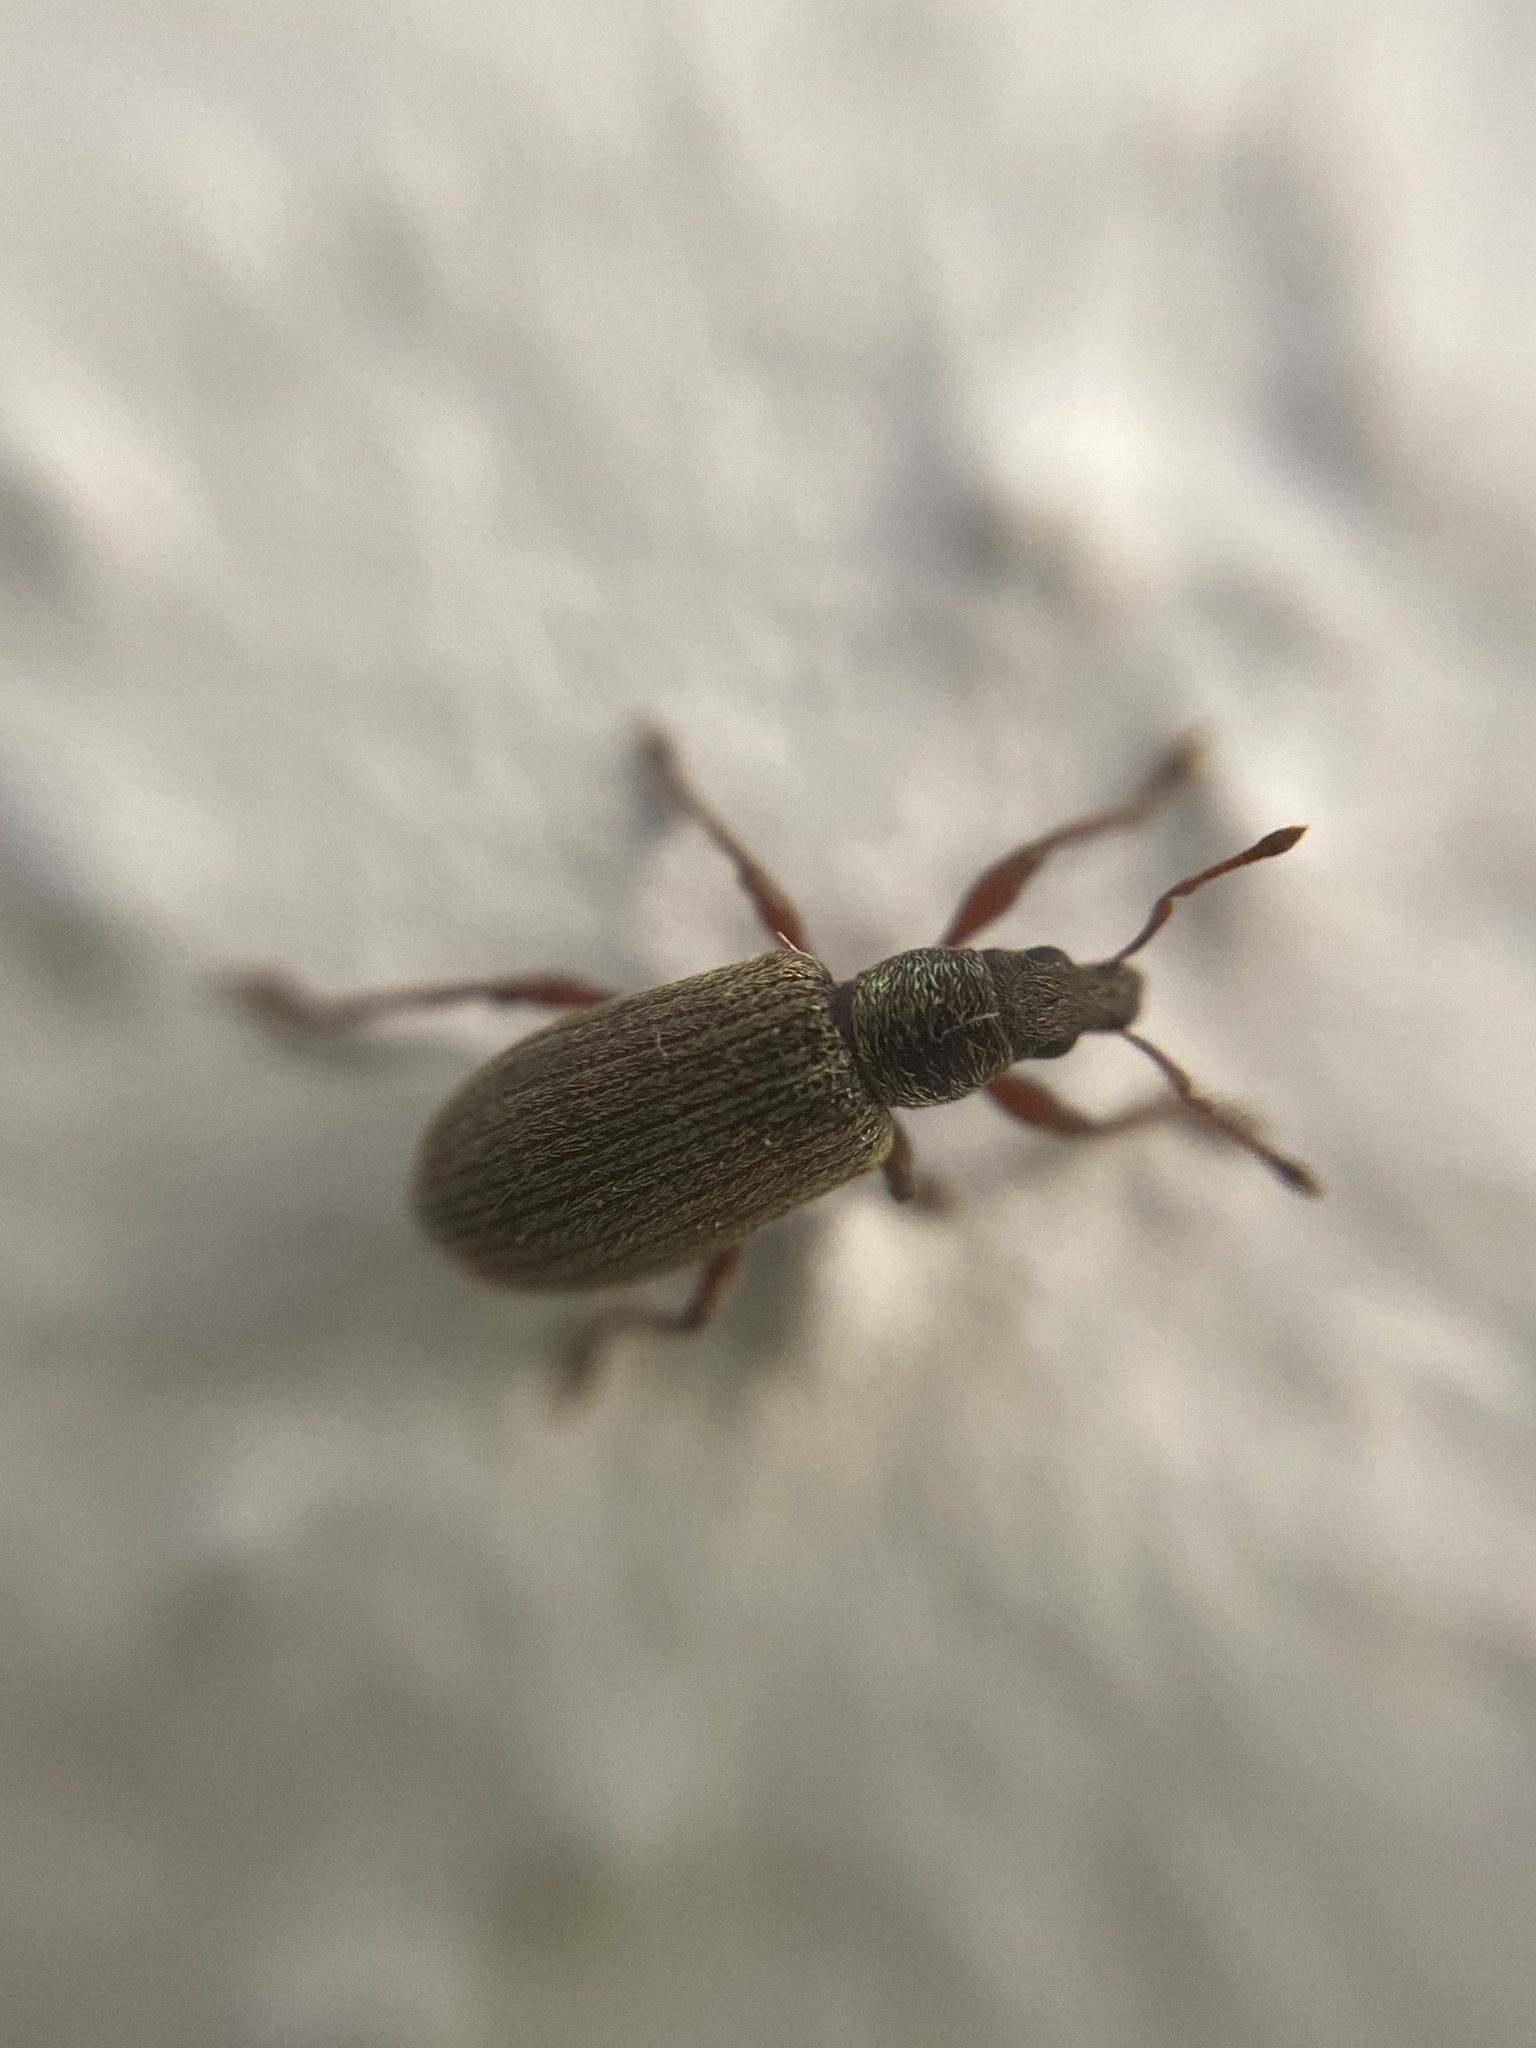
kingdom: Animalia
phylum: Arthropoda
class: Insecta
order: Coleoptera
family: Curculionidae
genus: Polydrusus
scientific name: Polydrusus aeratus
